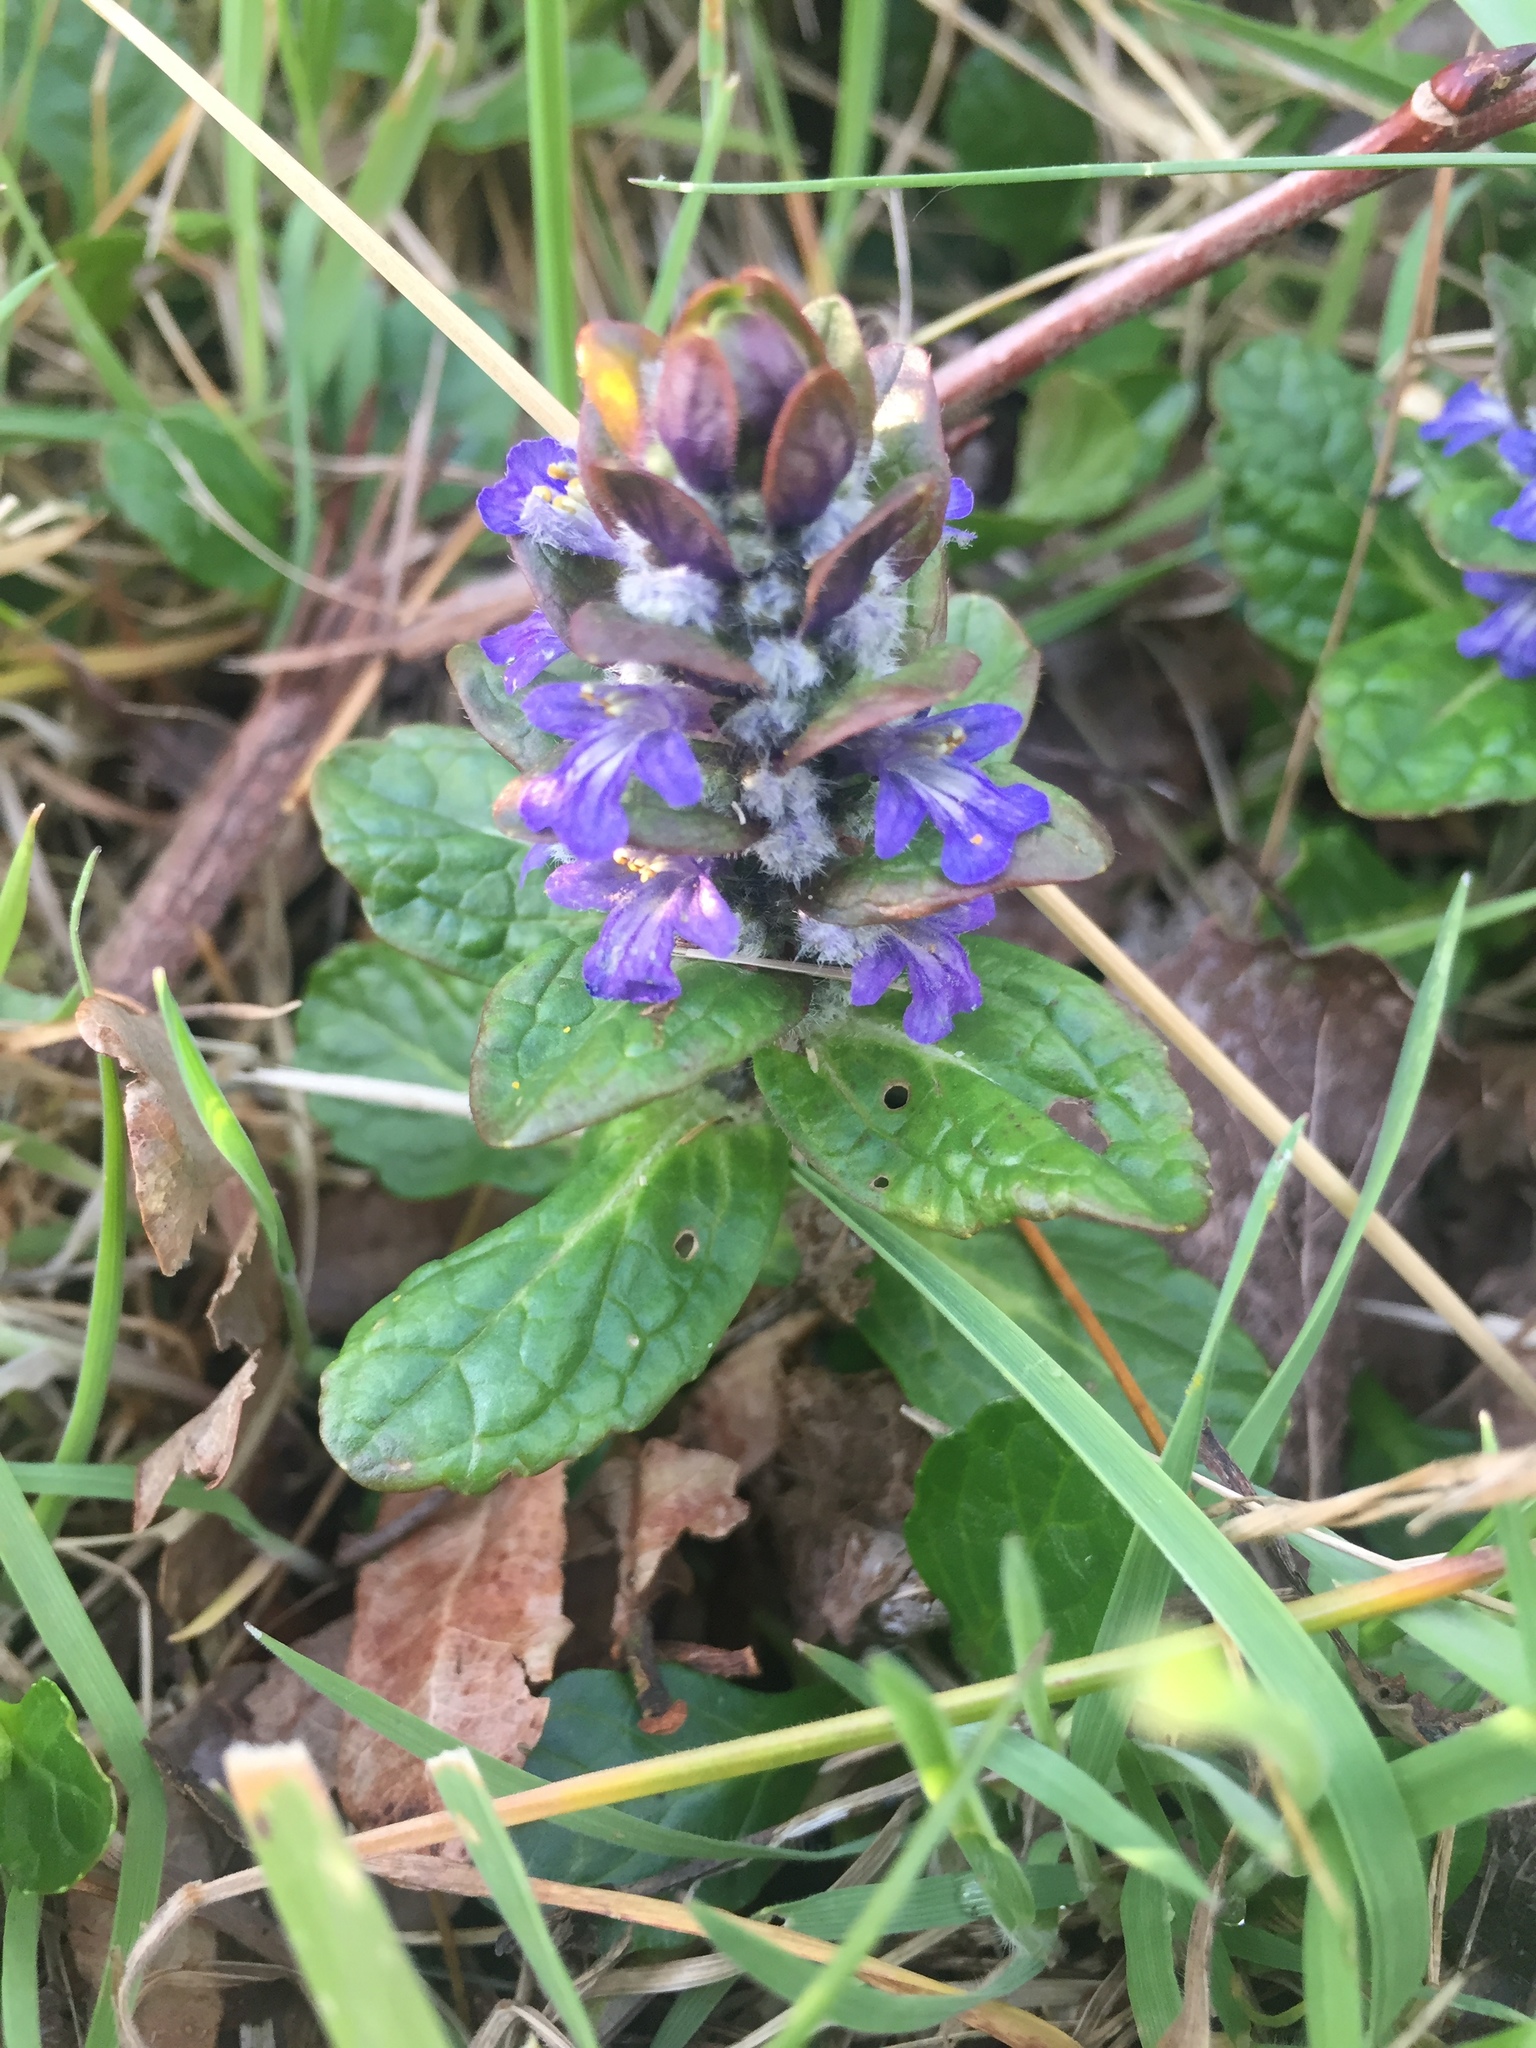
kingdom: Plantae
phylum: Tracheophyta
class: Magnoliopsida
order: Lamiales
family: Lamiaceae
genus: Ajuga
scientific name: Ajuga reptans
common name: Bugle
